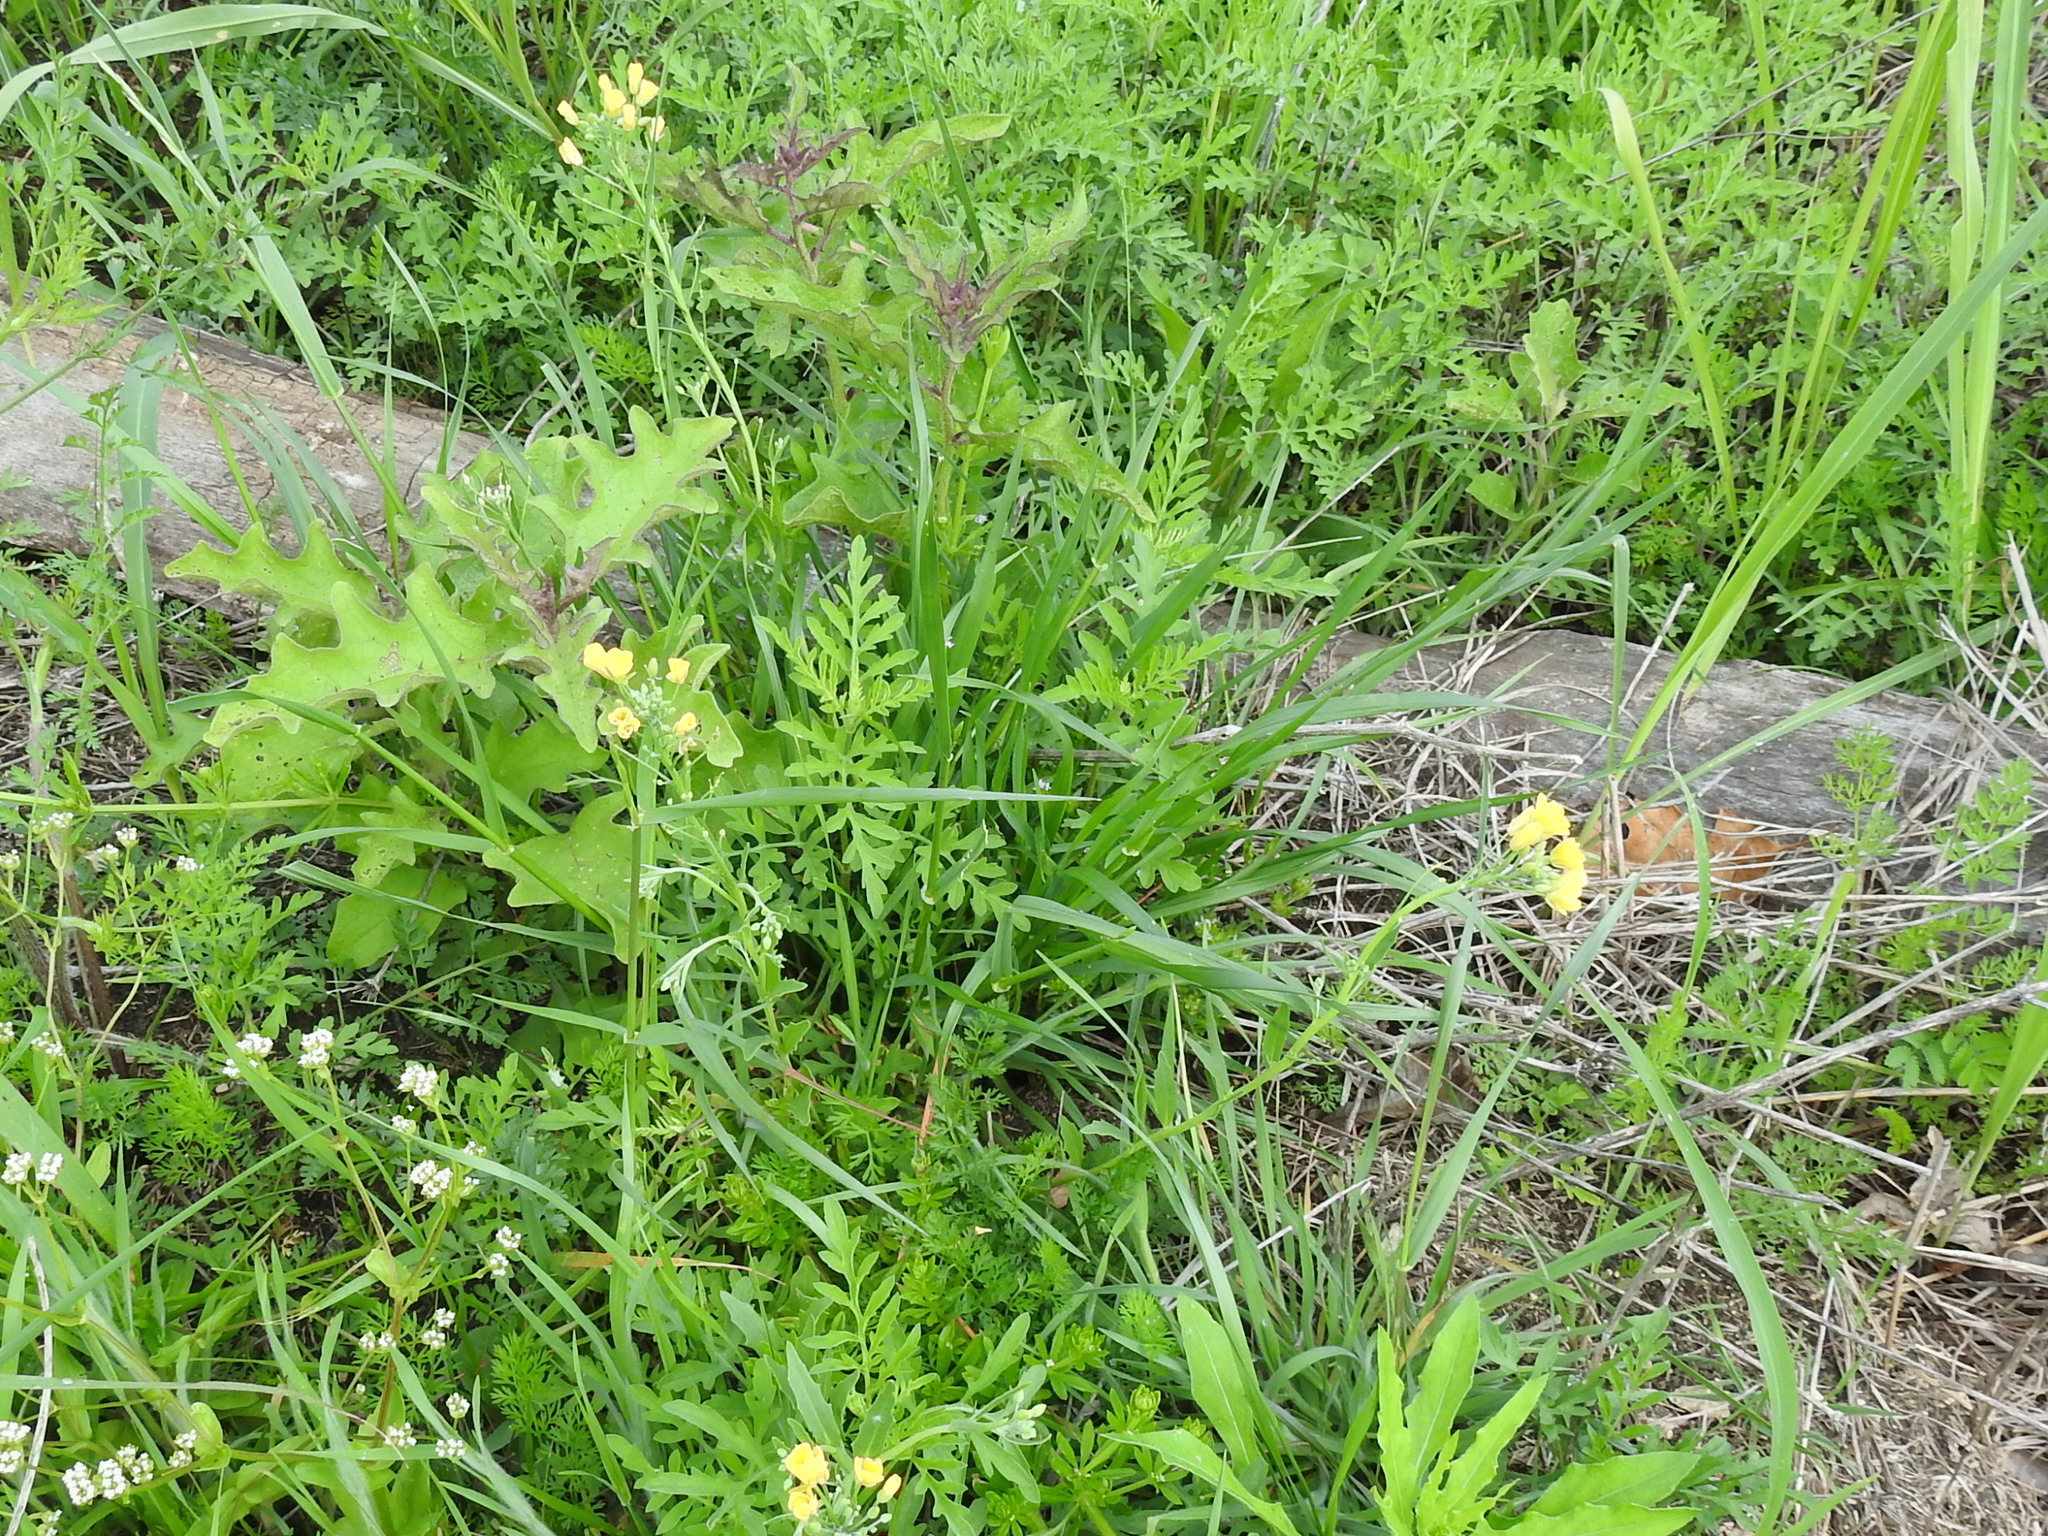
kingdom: Plantae
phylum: Tracheophyta
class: Magnoliopsida
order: Brassicales
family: Brassicaceae
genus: Physaria
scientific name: Physaria gracilis
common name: Spreading bladderpod
